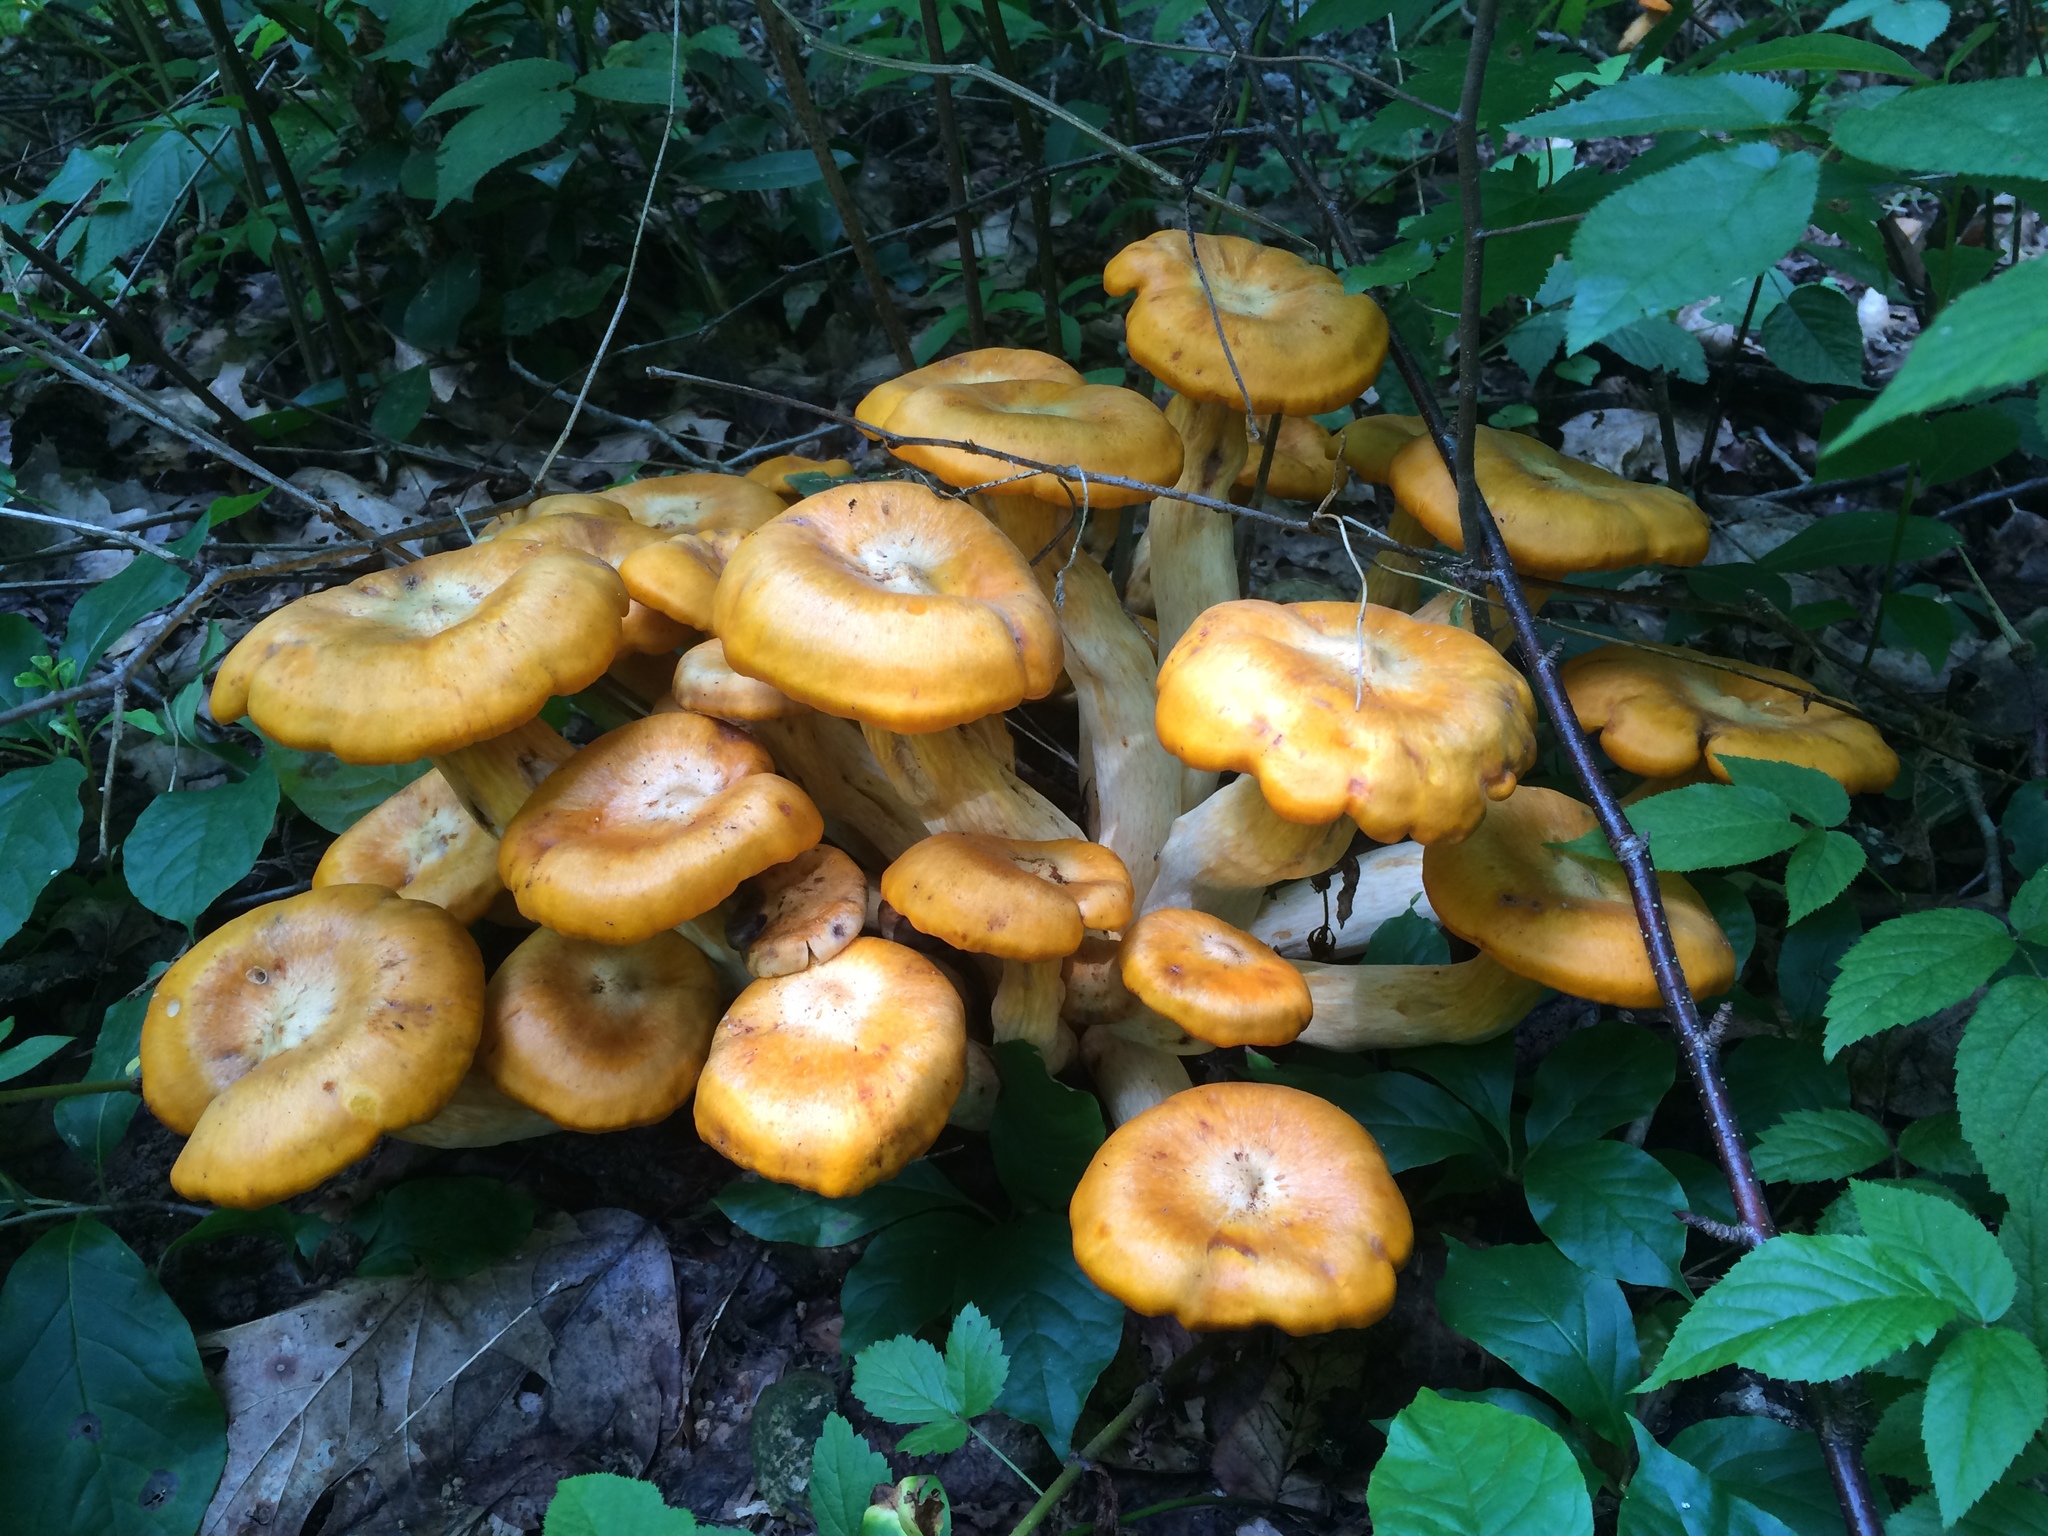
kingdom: Fungi
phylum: Basidiomycota
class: Agaricomycetes
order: Agaricales
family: Omphalotaceae
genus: Omphalotus
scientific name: Omphalotus illudens
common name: Jack o lantern
